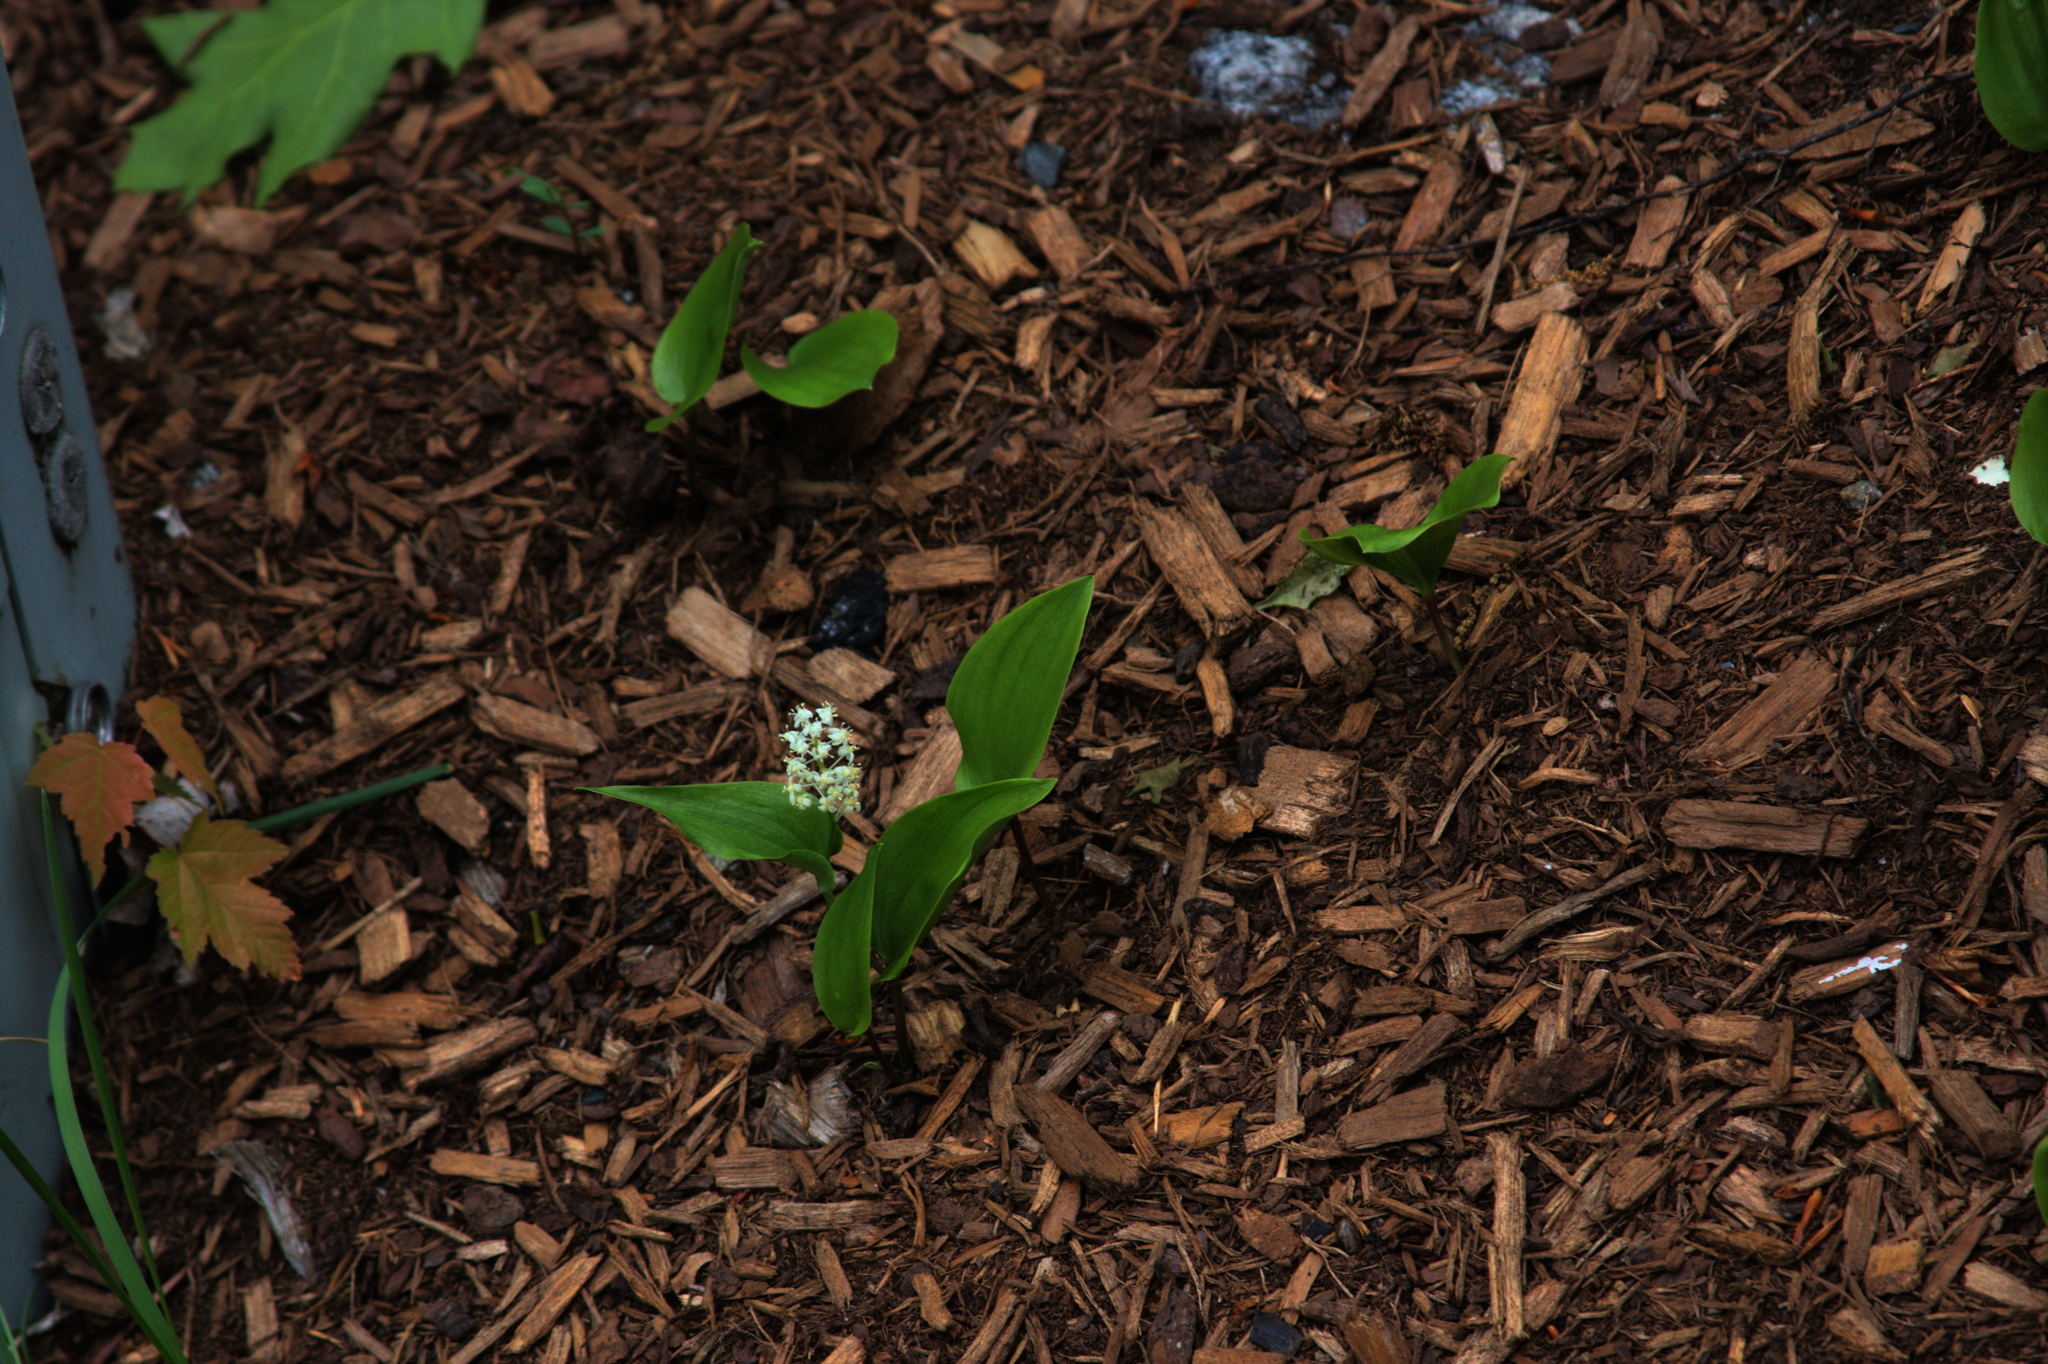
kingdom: Plantae
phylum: Tracheophyta
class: Liliopsida
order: Asparagales
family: Asparagaceae
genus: Maianthemum
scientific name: Maianthemum canadense
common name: False lily-of-the-valley
